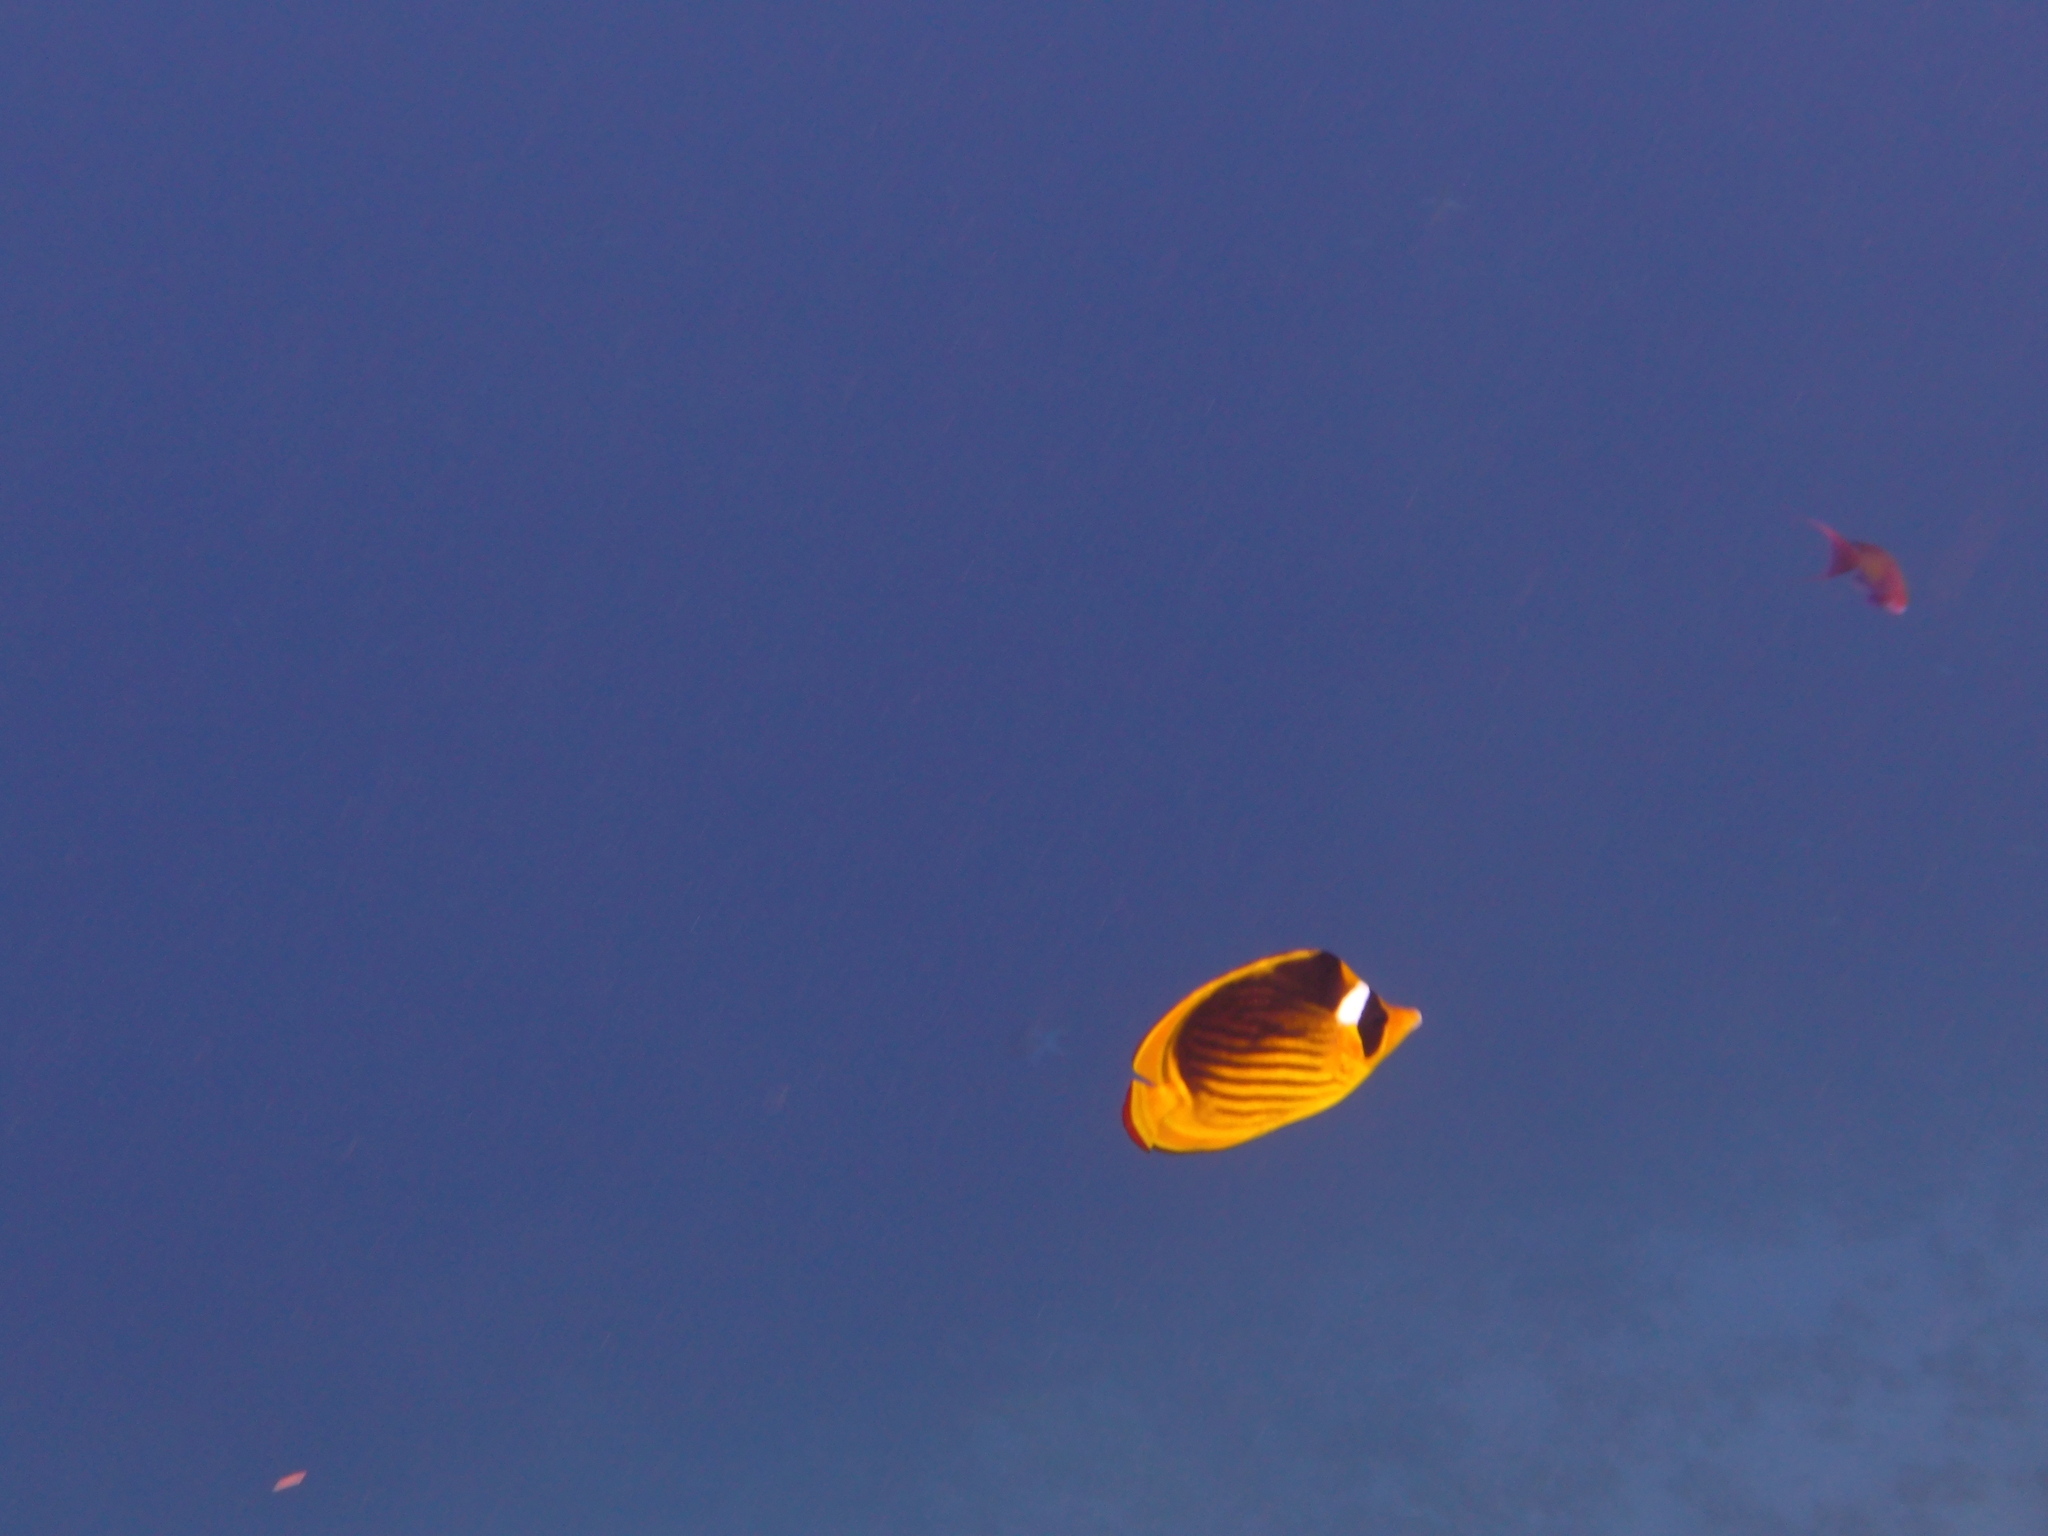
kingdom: Animalia
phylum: Chordata
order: Perciformes
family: Chaetodontidae
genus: Chaetodon
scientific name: Chaetodon fasciatus
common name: Diagonal butterflyfish
